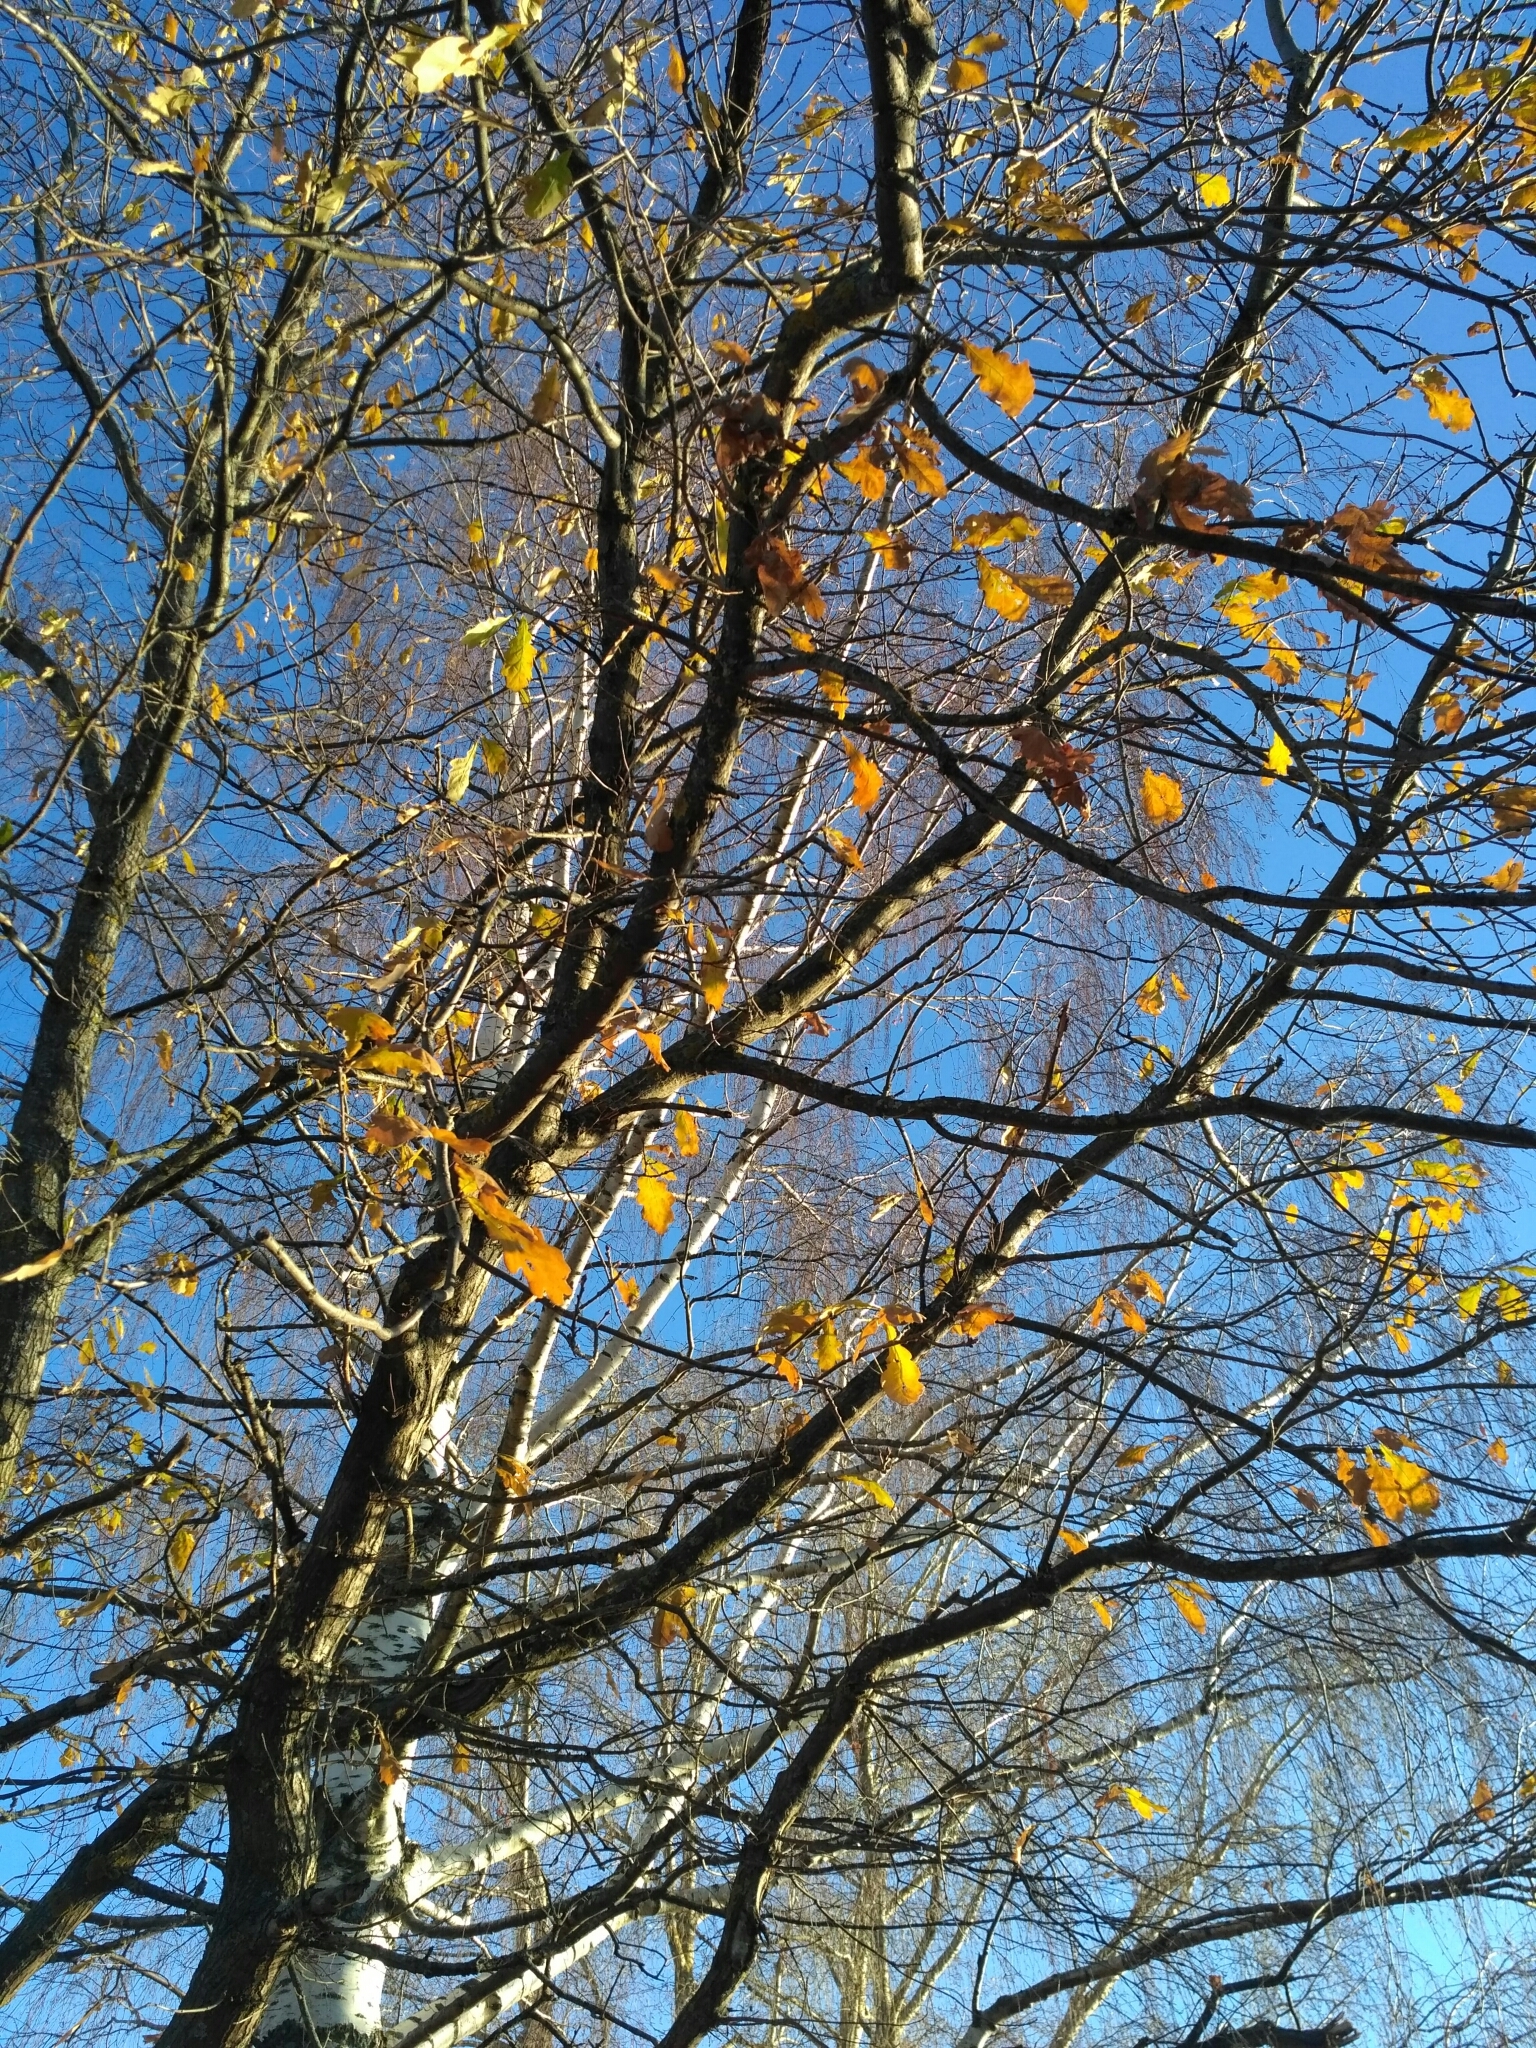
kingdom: Plantae
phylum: Tracheophyta
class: Magnoliopsida
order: Fagales
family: Fagaceae
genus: Quercus
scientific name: Quercus robur
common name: Pedunculate oak
